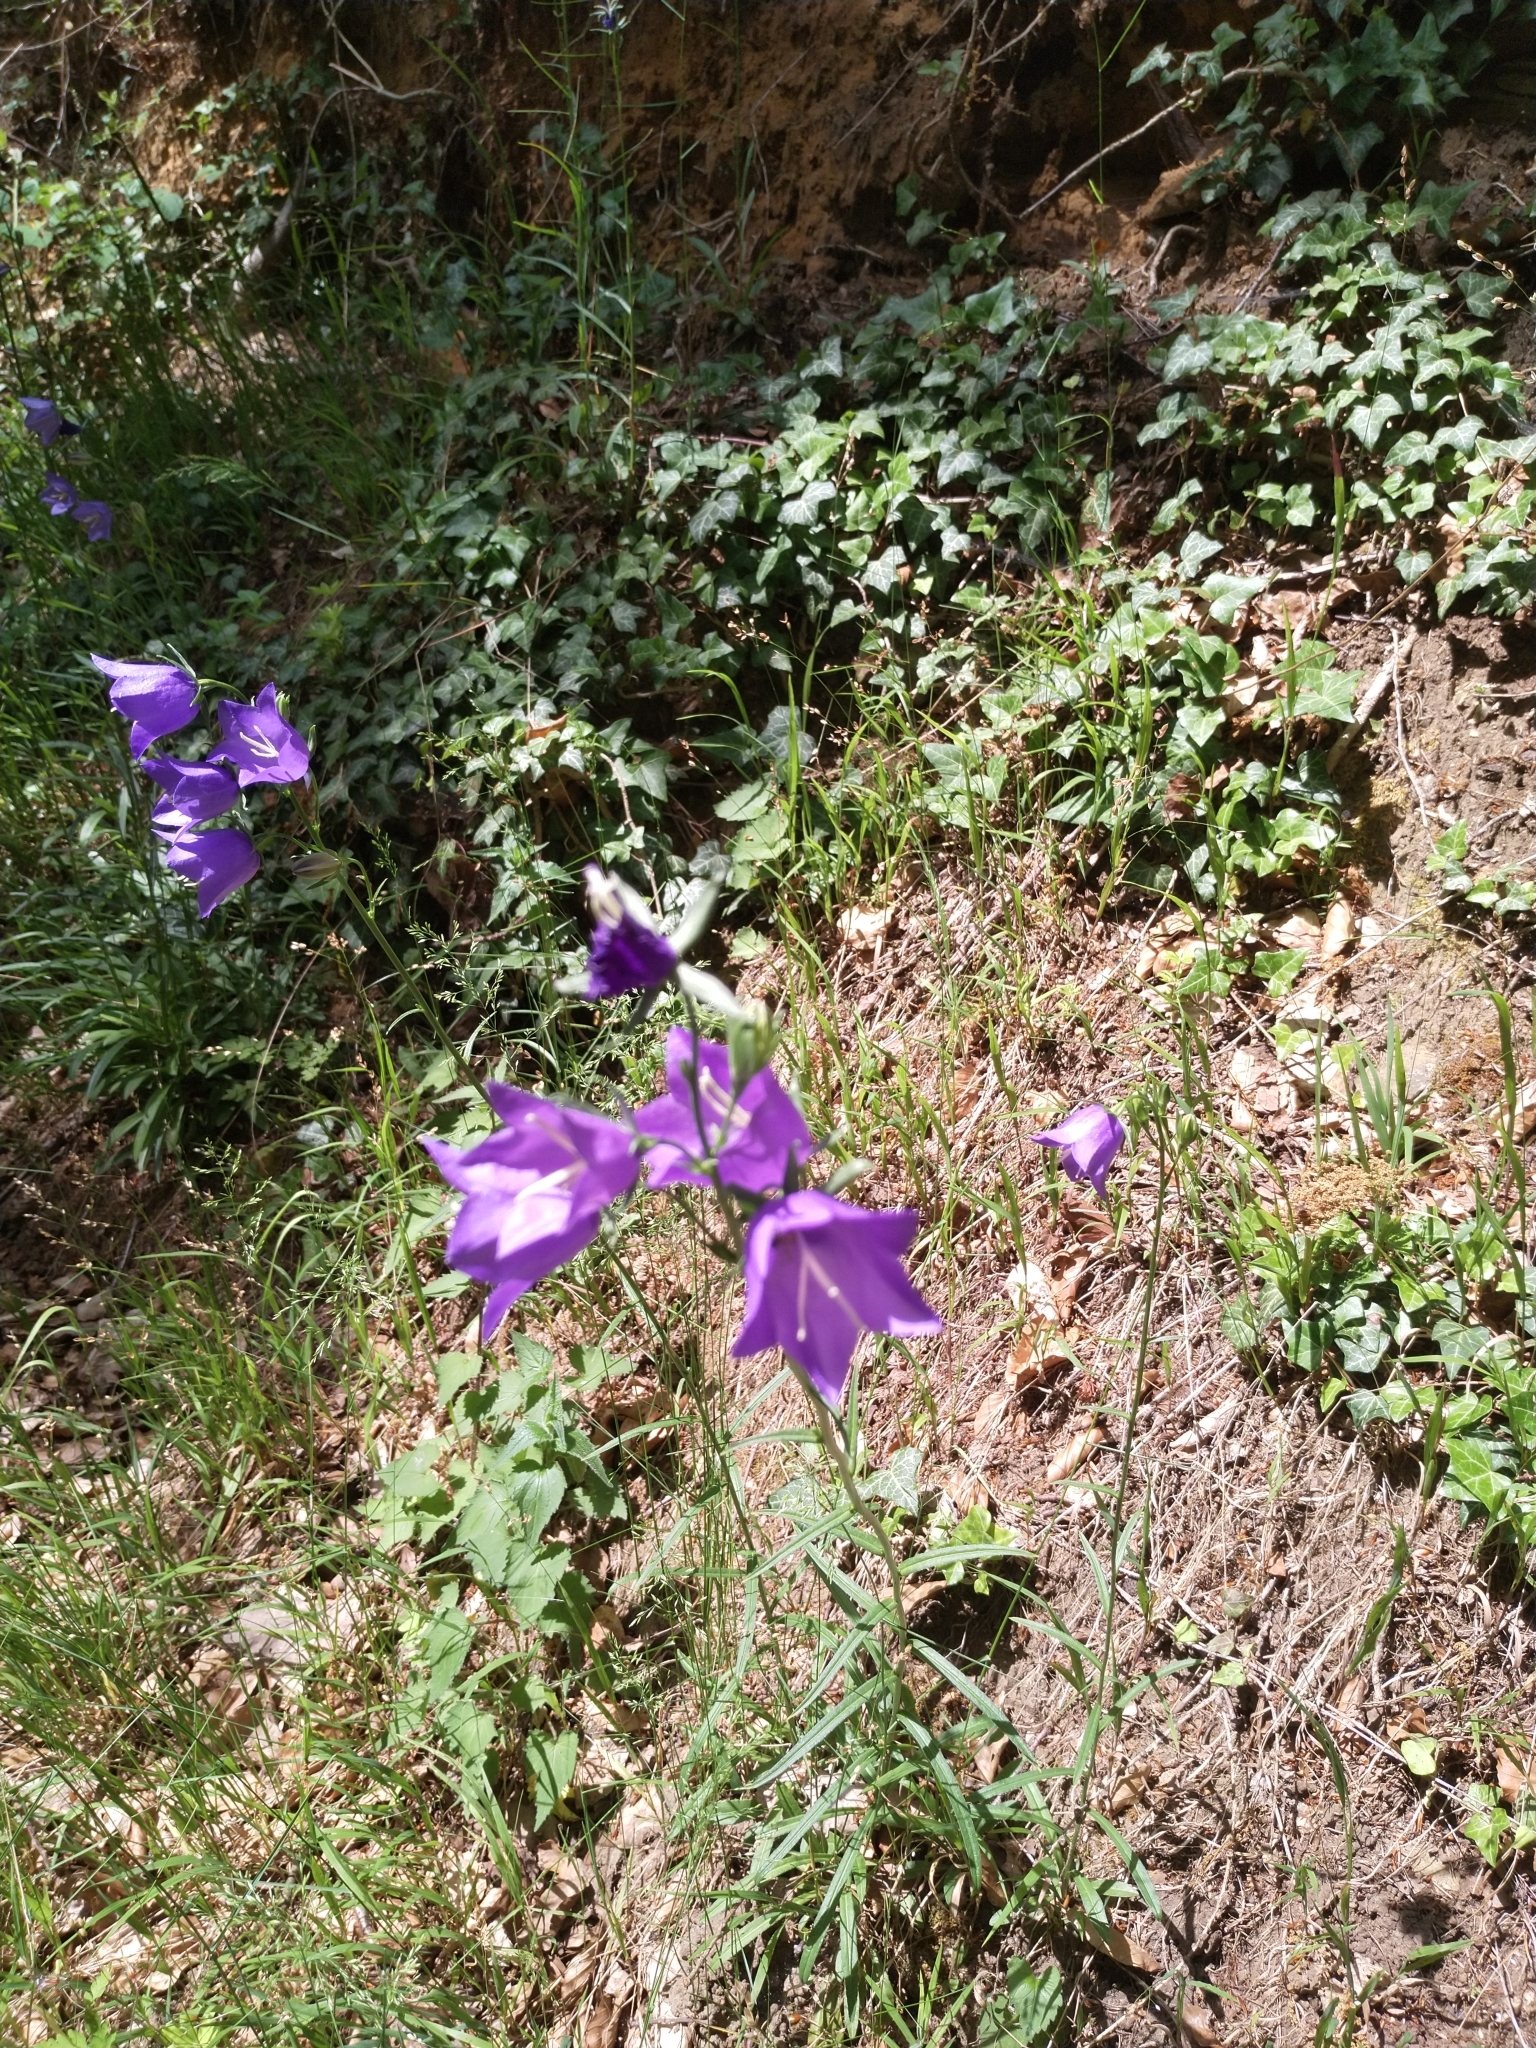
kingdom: Plantae
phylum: Tracheophyta
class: Magnoliopsida
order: Asterales
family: Campanulaceae
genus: Campanula
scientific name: Campanula persicifolia
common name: Peach-leaved bellflower
